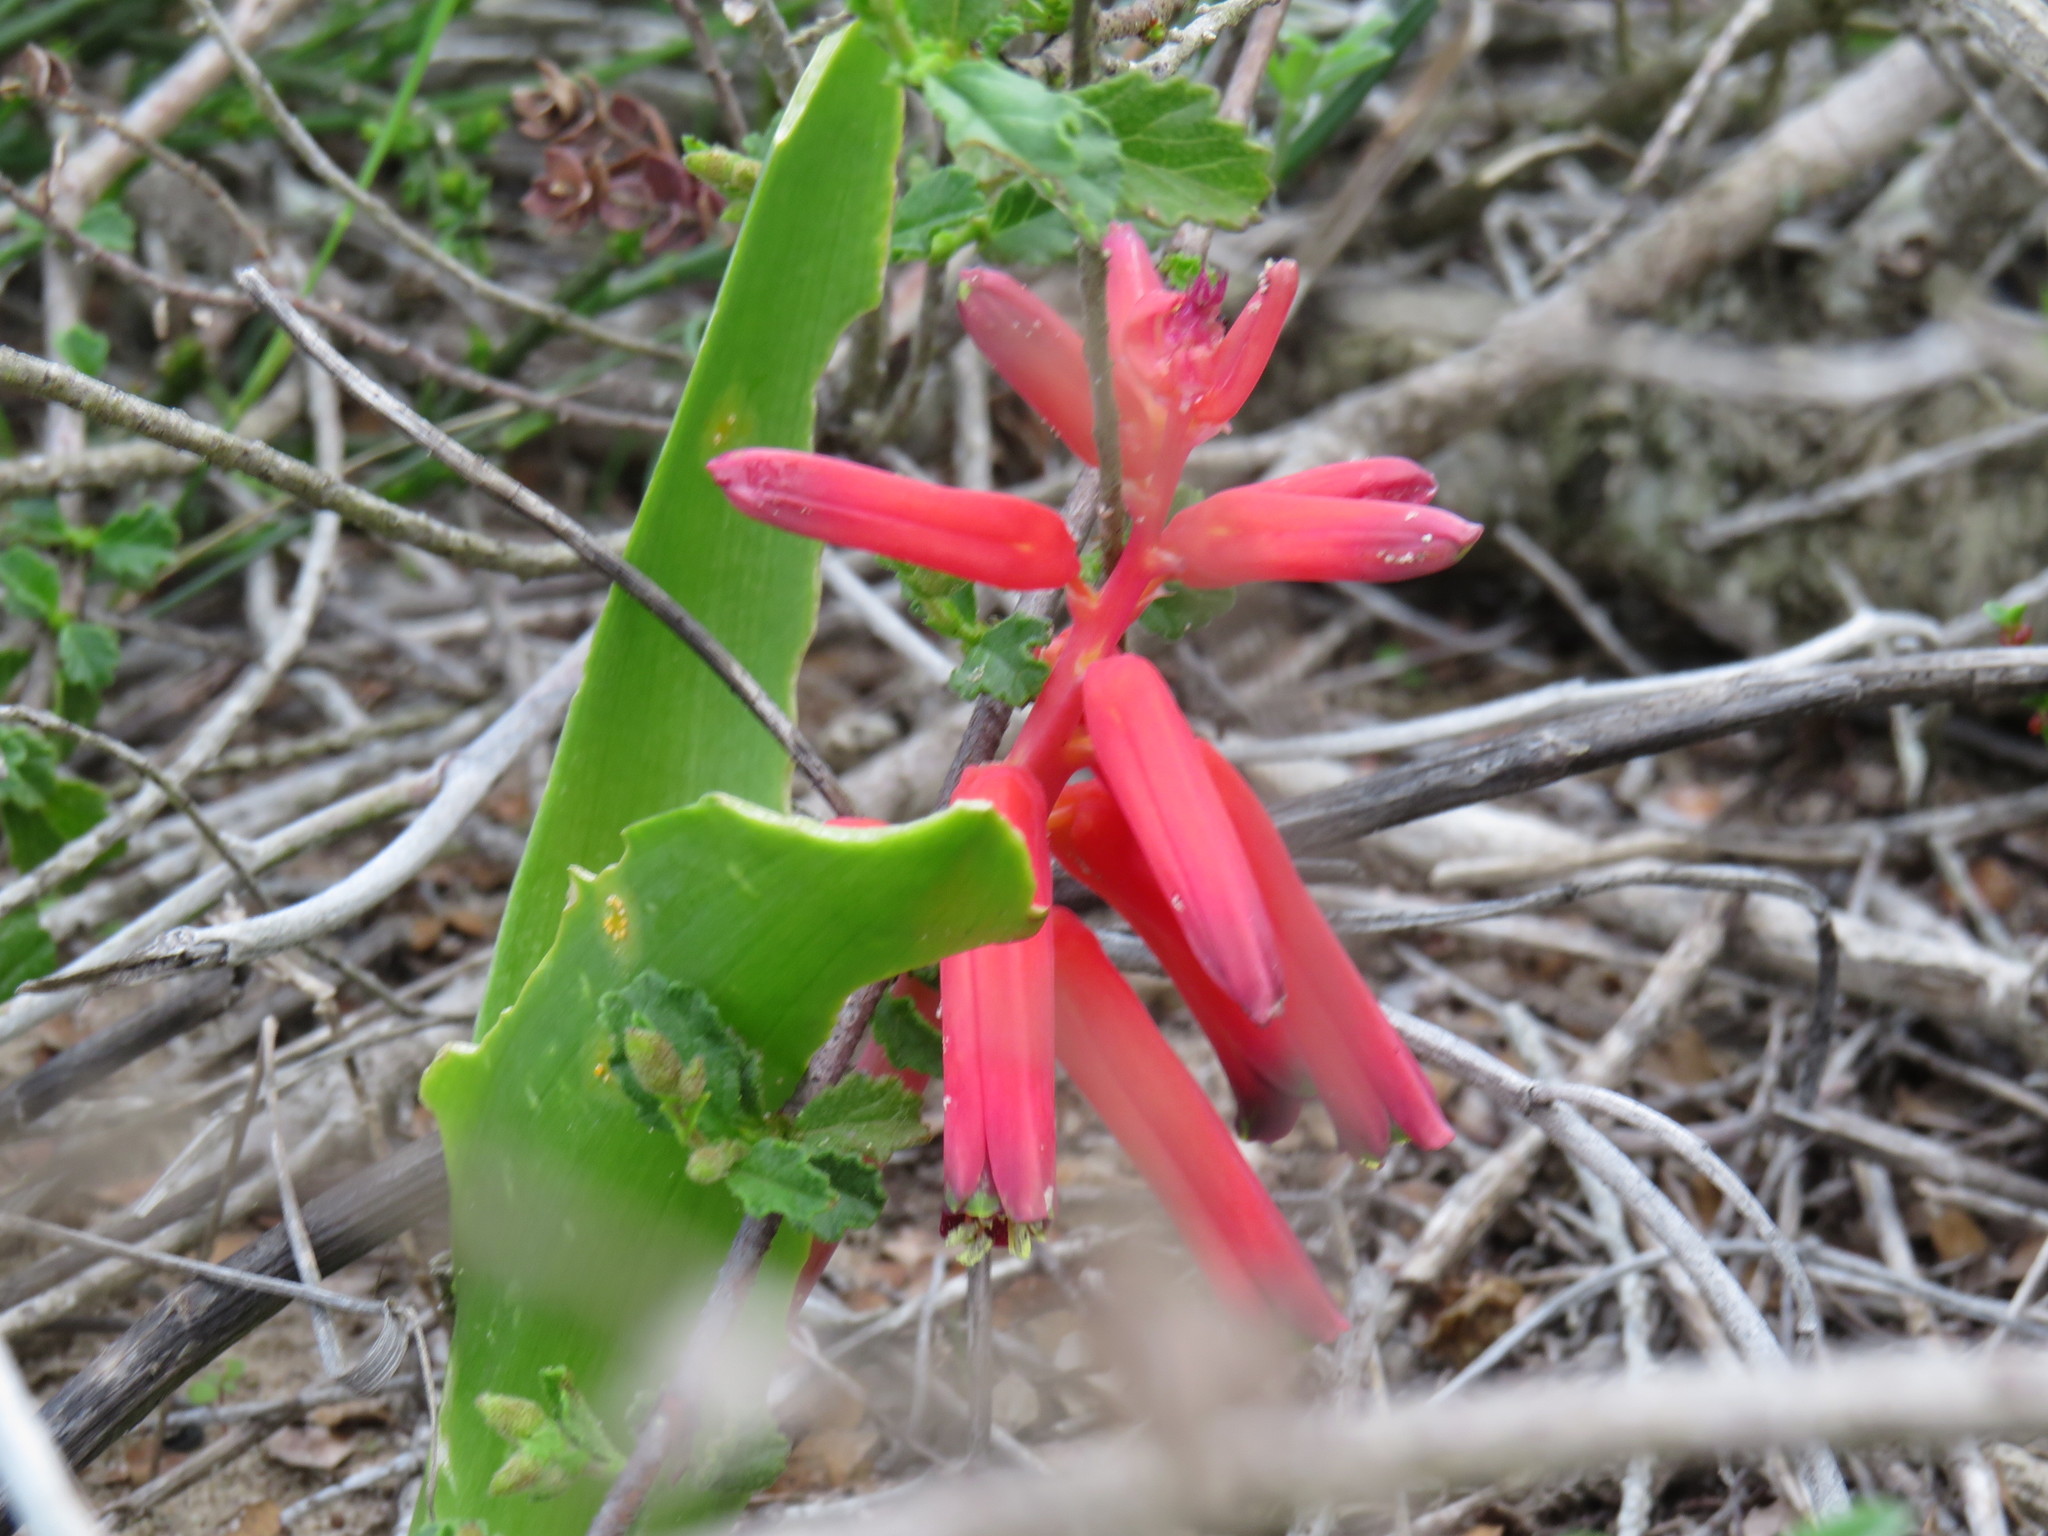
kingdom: Plantae
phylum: Tracheophyta
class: Liliopsida
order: Asparagales
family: Asparagaceae
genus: Lachenalia
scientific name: Lachenalia bulbifera
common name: Red lachenalia
